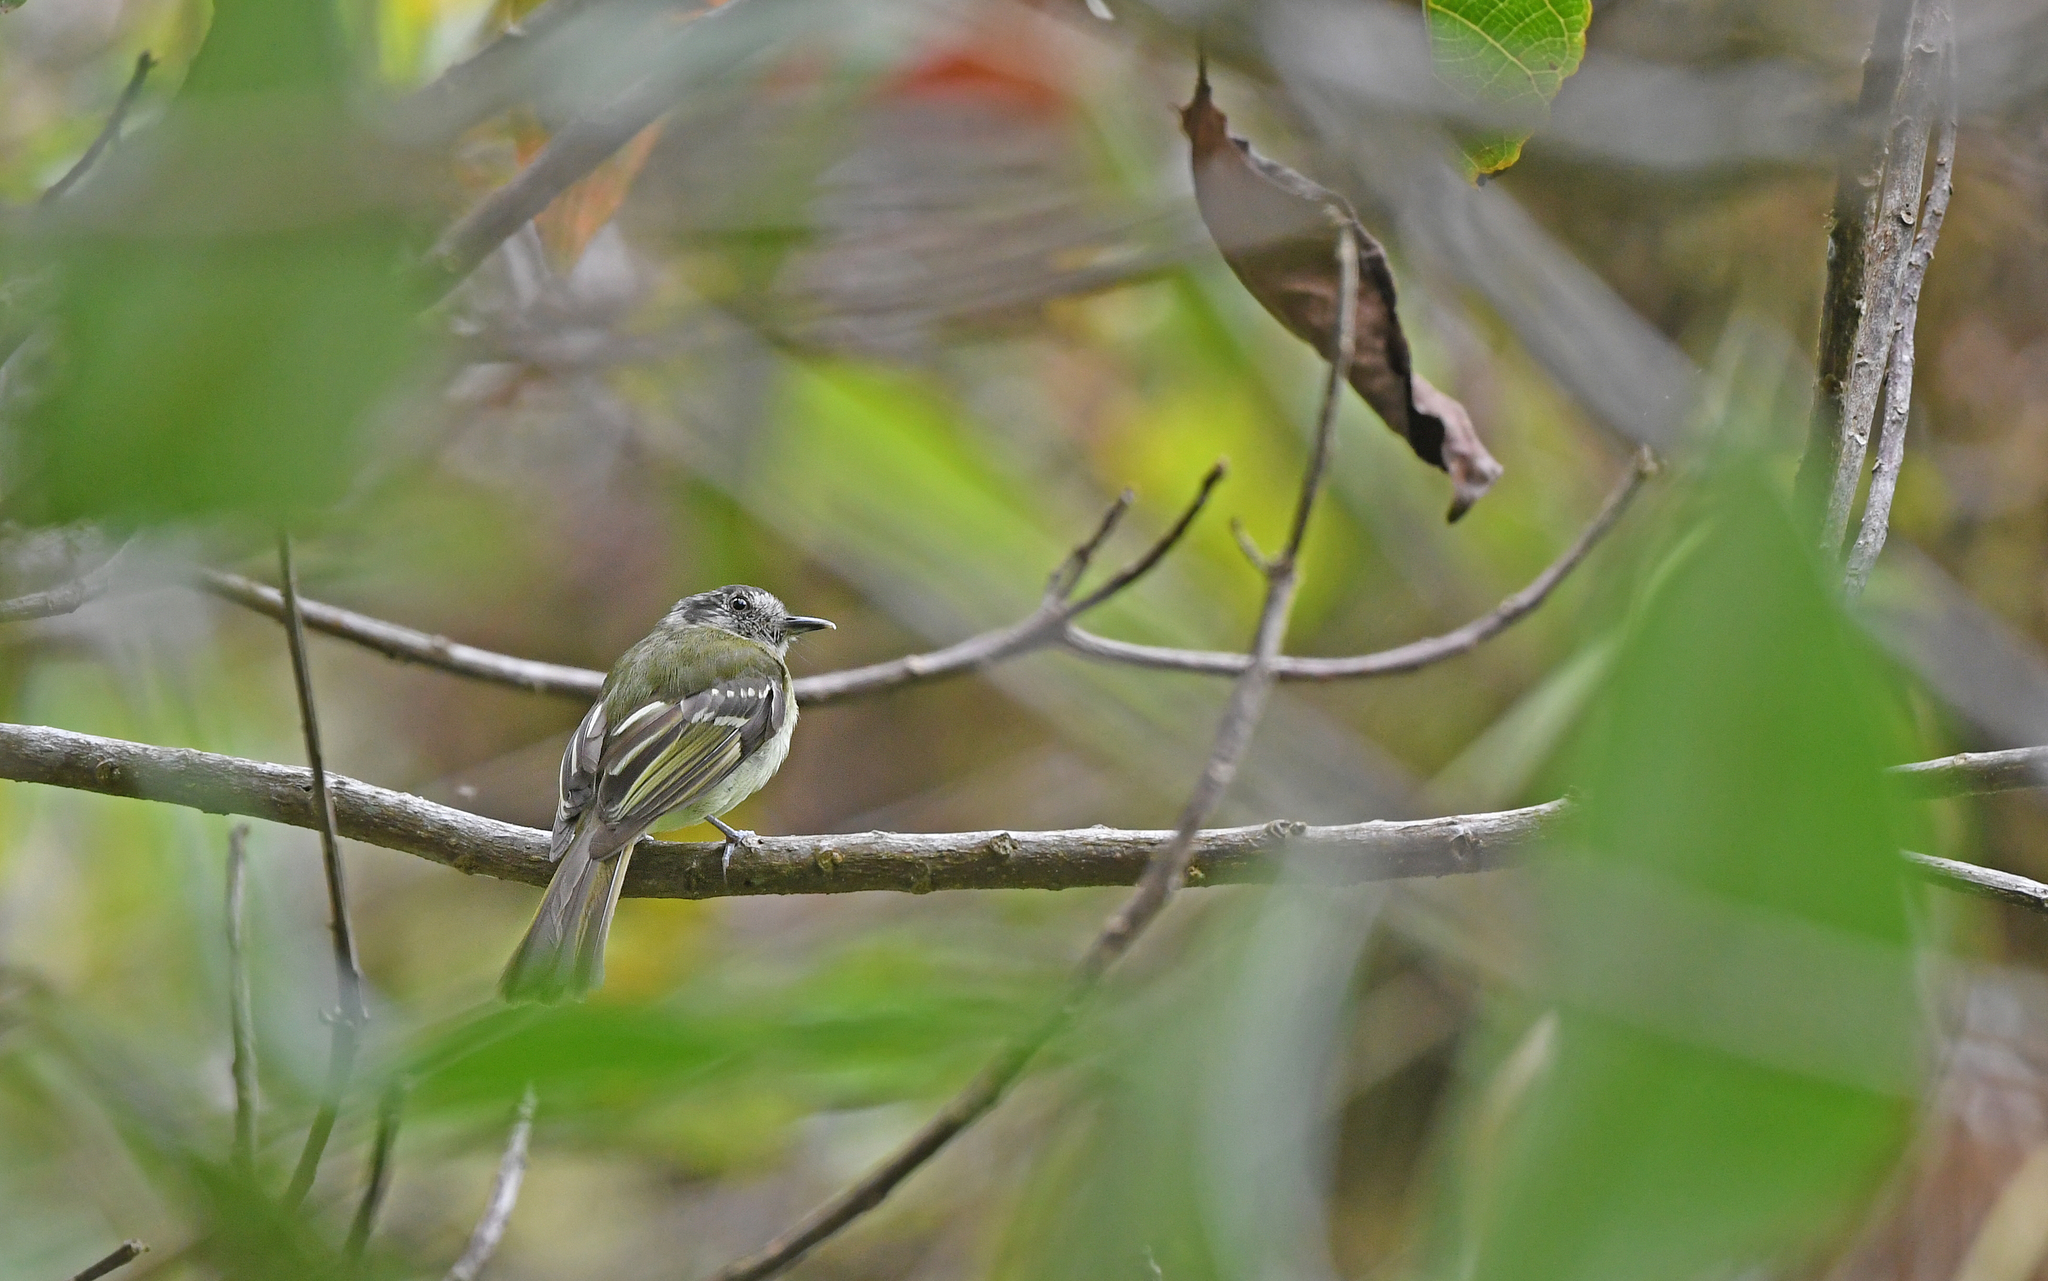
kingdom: Animalia
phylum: Chordata
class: Aves
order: Passeriformes
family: Tyrannidae
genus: Leptopogon
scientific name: Leptopogon superciliaris
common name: Slaty-capped flycatcher
